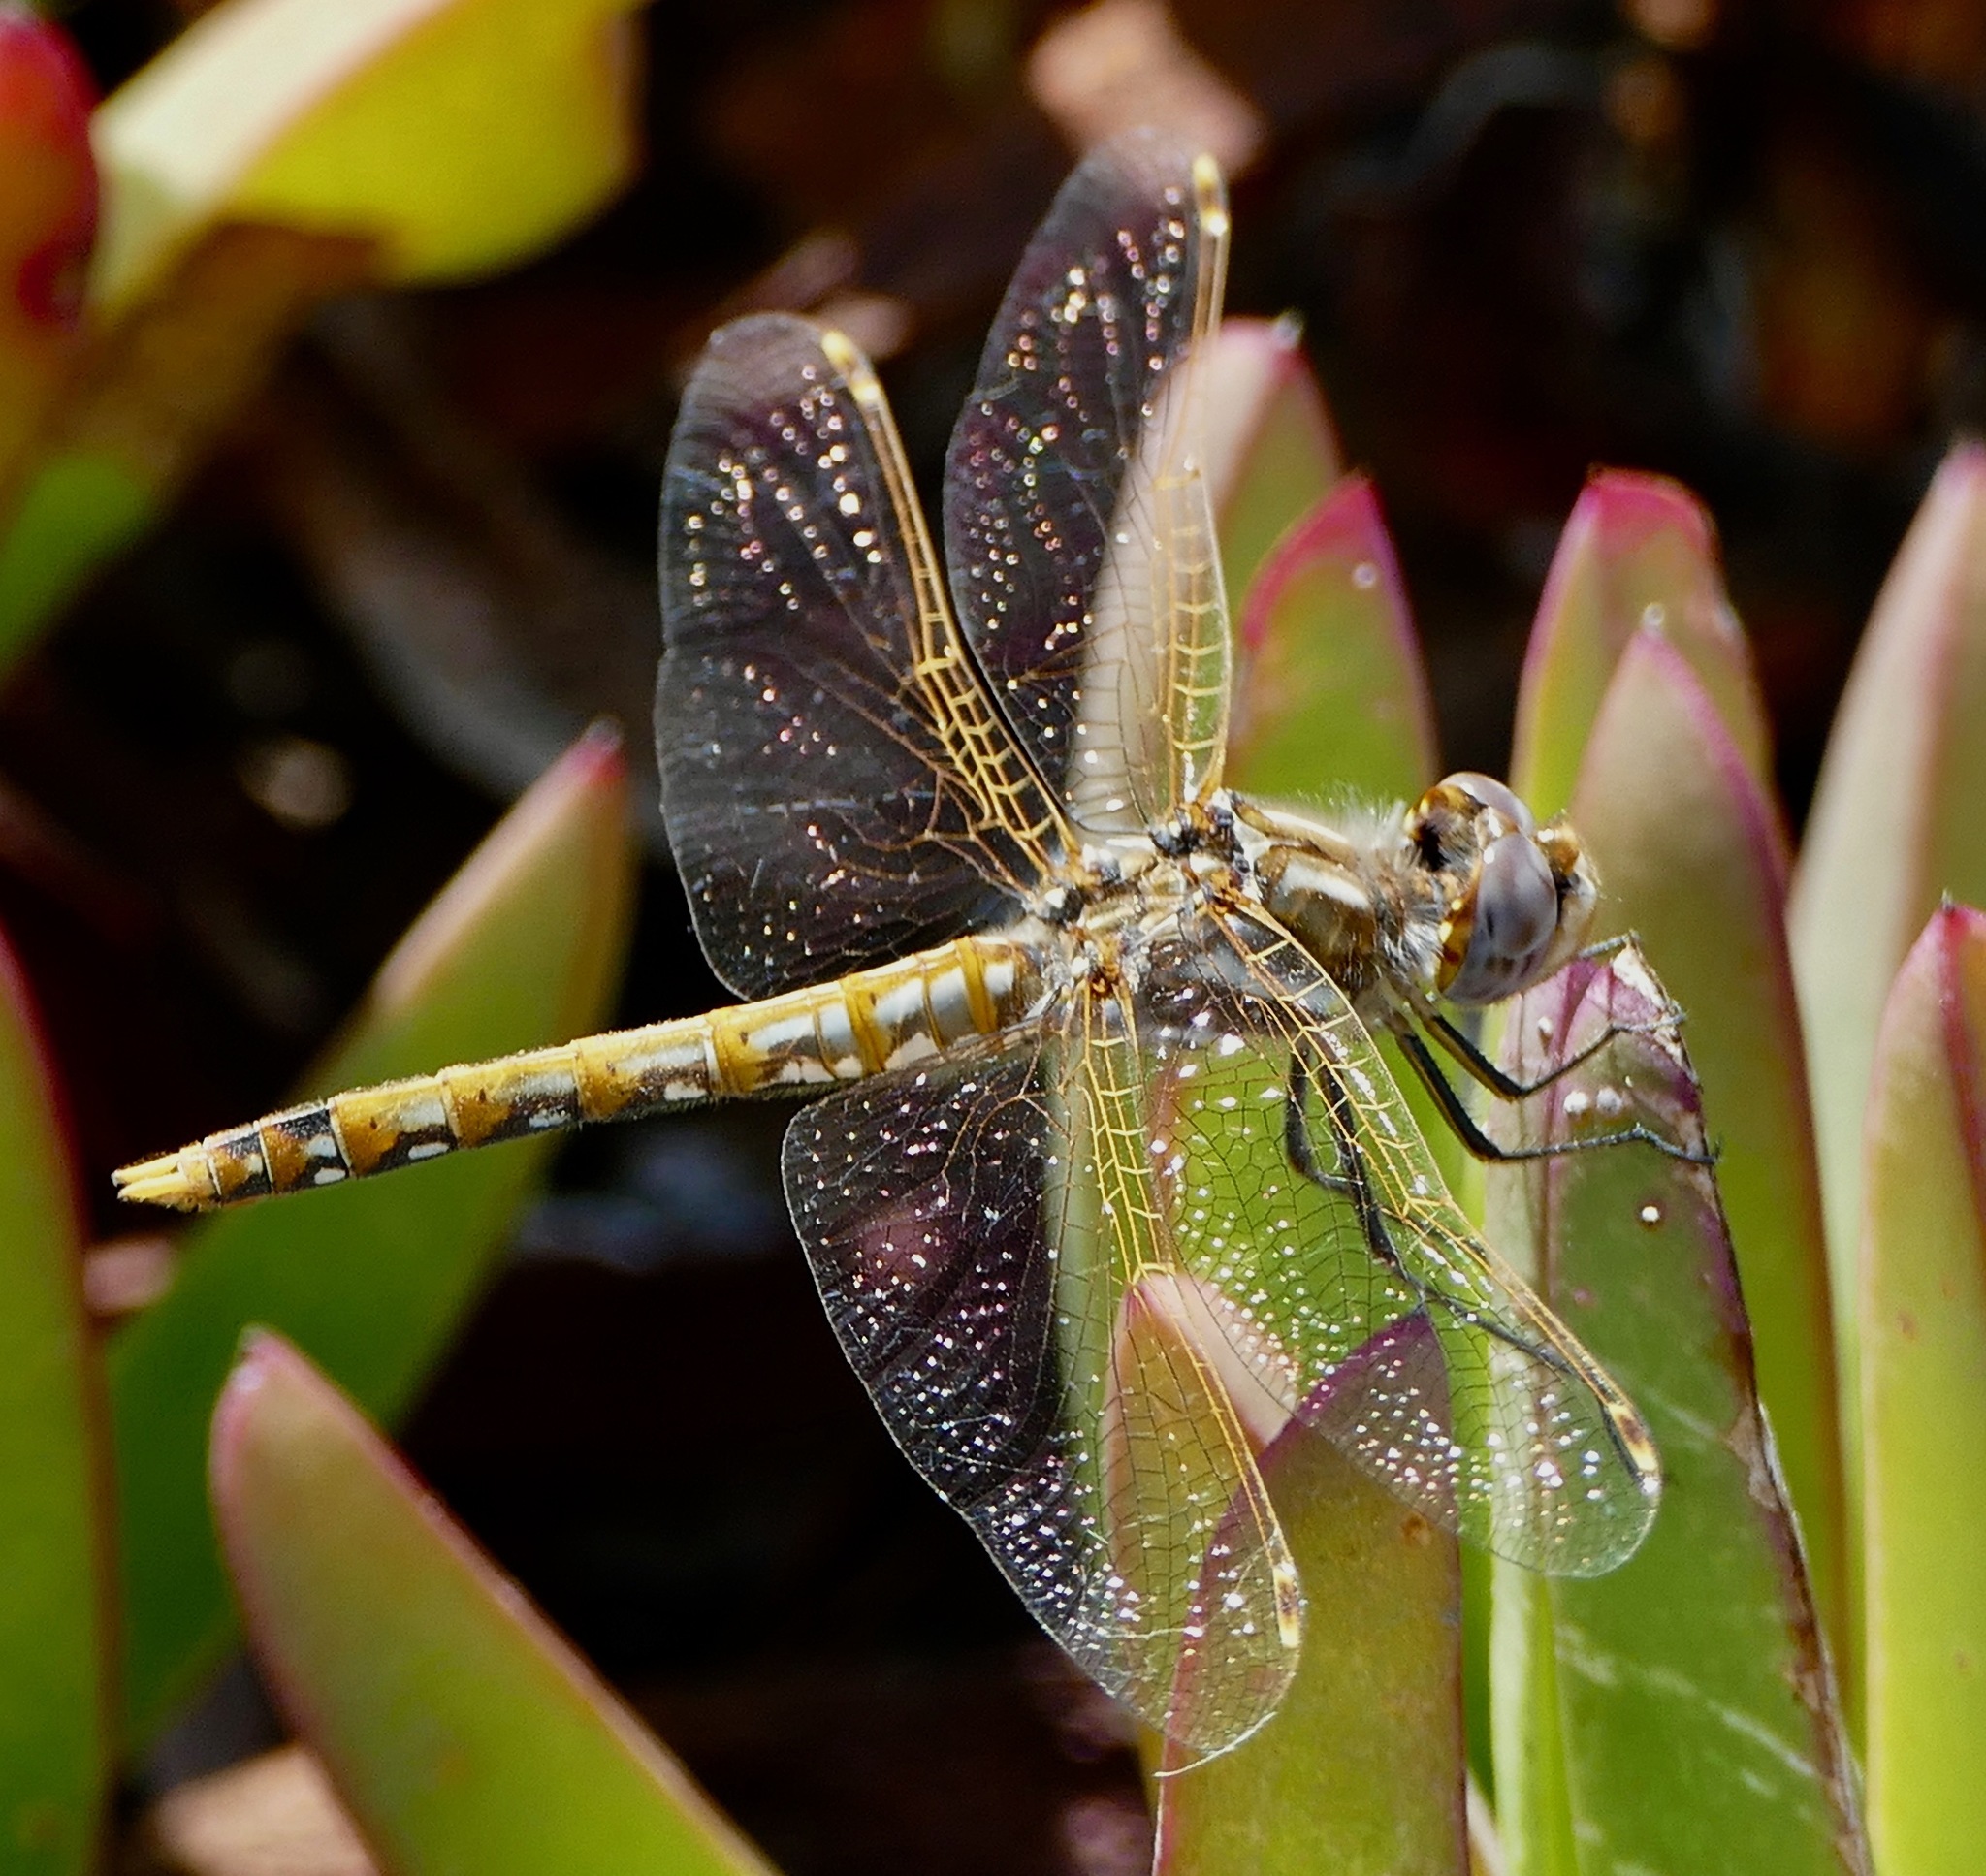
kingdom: Animalia
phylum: Arthropoda
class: Insecta
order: Odonata
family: Libellulidae
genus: Sympetrum
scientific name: Sympetrum corruptum
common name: Variegated meadowhawk
